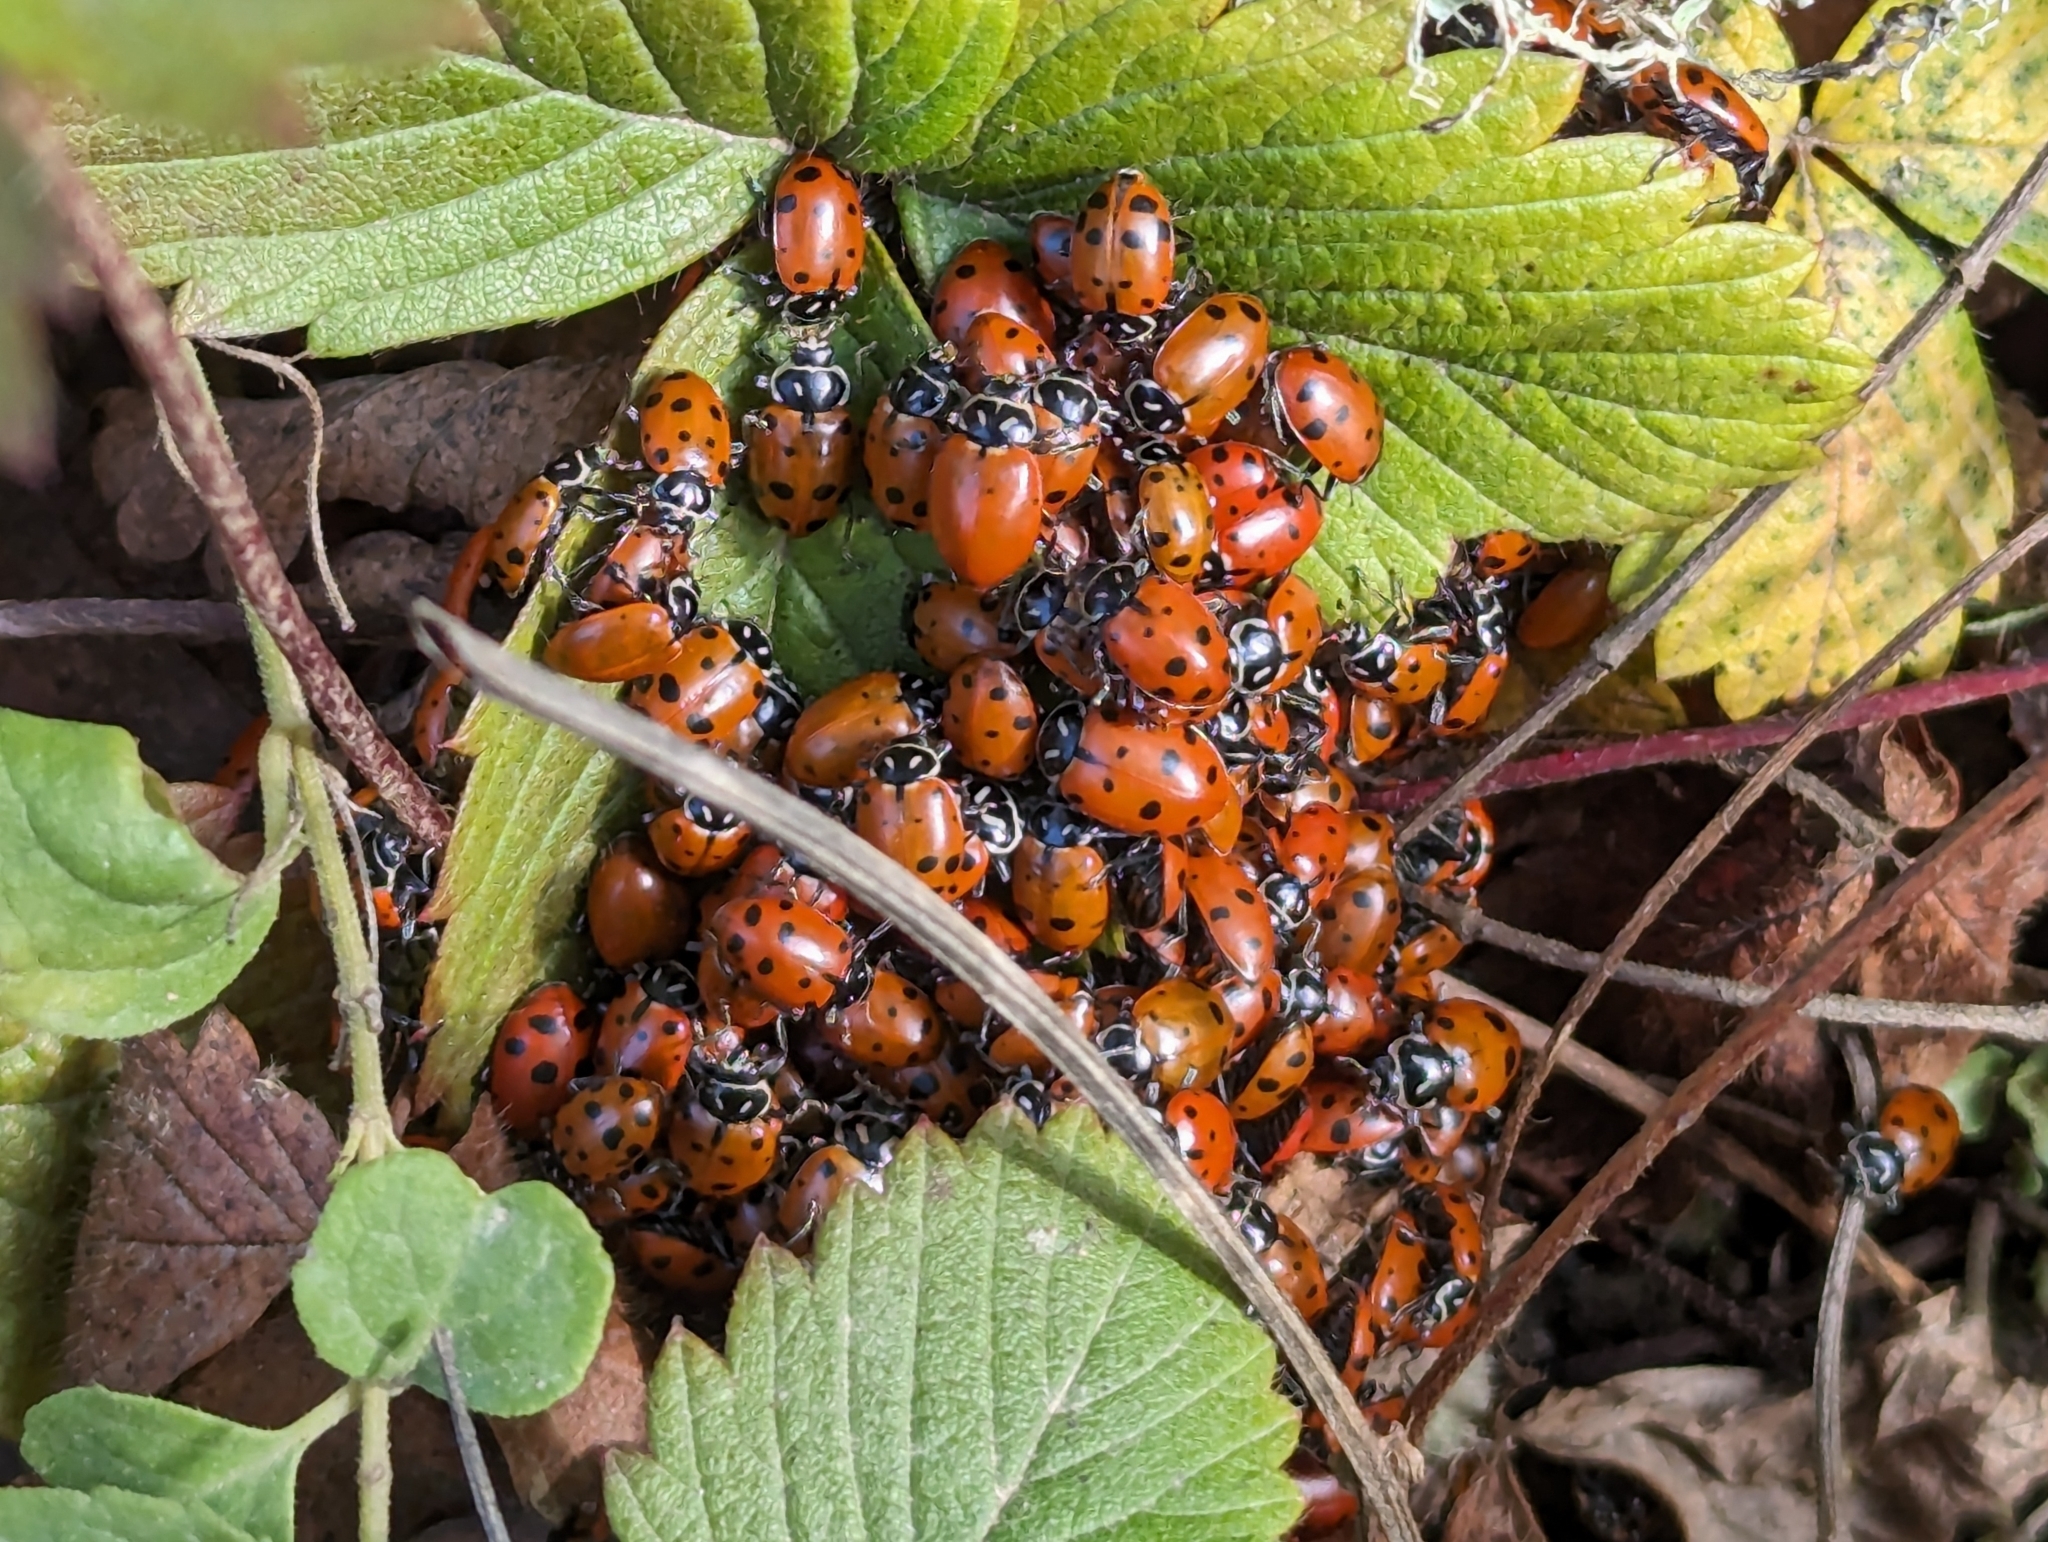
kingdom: Animalia
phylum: Arthropoda
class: Insecta
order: Coleoptera
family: Coccinellidae
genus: Hippodamia
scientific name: Hippodamia convergens
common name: Convergent lady beetle
